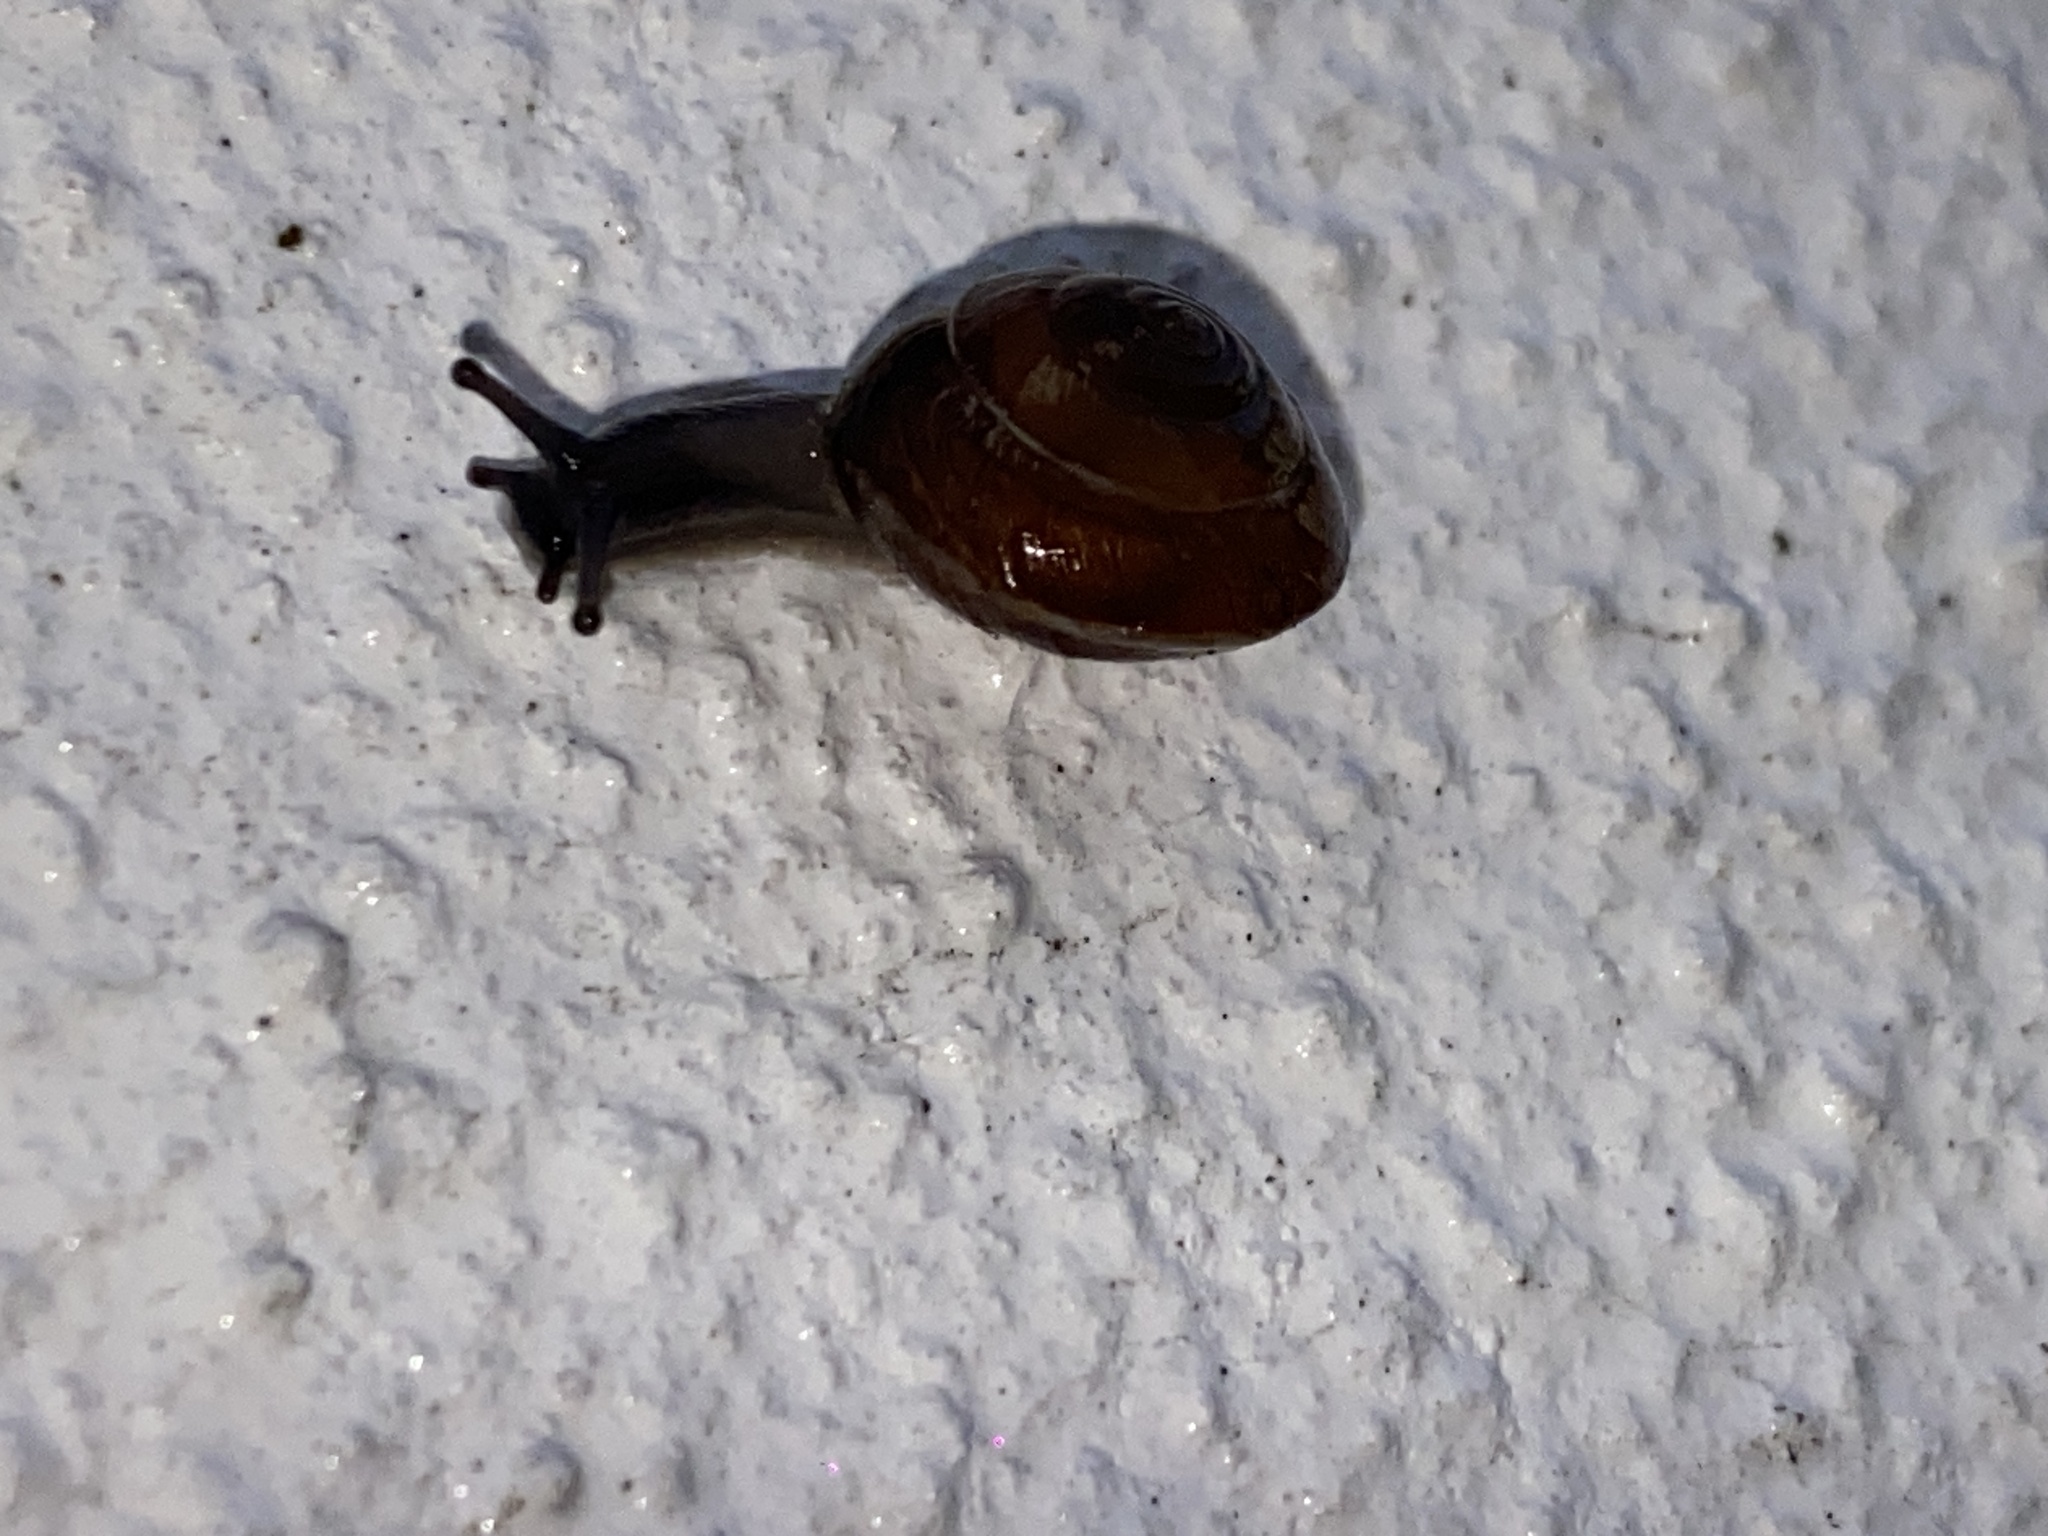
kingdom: Animalia
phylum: Mollusca
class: Gastropoda
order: Stylommatophora
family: Hygromiidae
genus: Hygromia
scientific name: Hygromia cinctella
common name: Girdled snail
